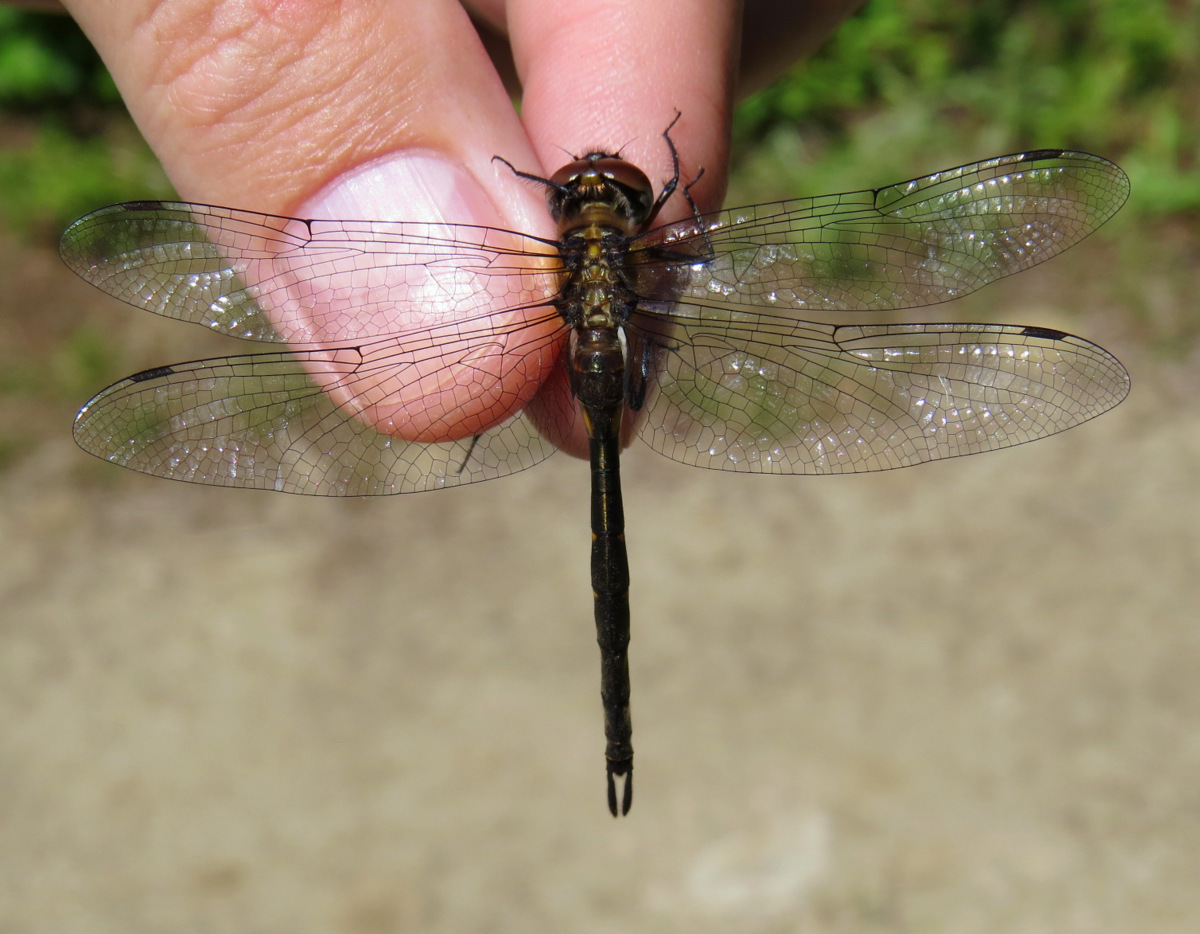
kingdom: Animalia
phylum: Arthropoda
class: Insecta
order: Odonata
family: Corduliidae
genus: Somatochlora
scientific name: Somatochlora forcipata
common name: Forcipate emerald
